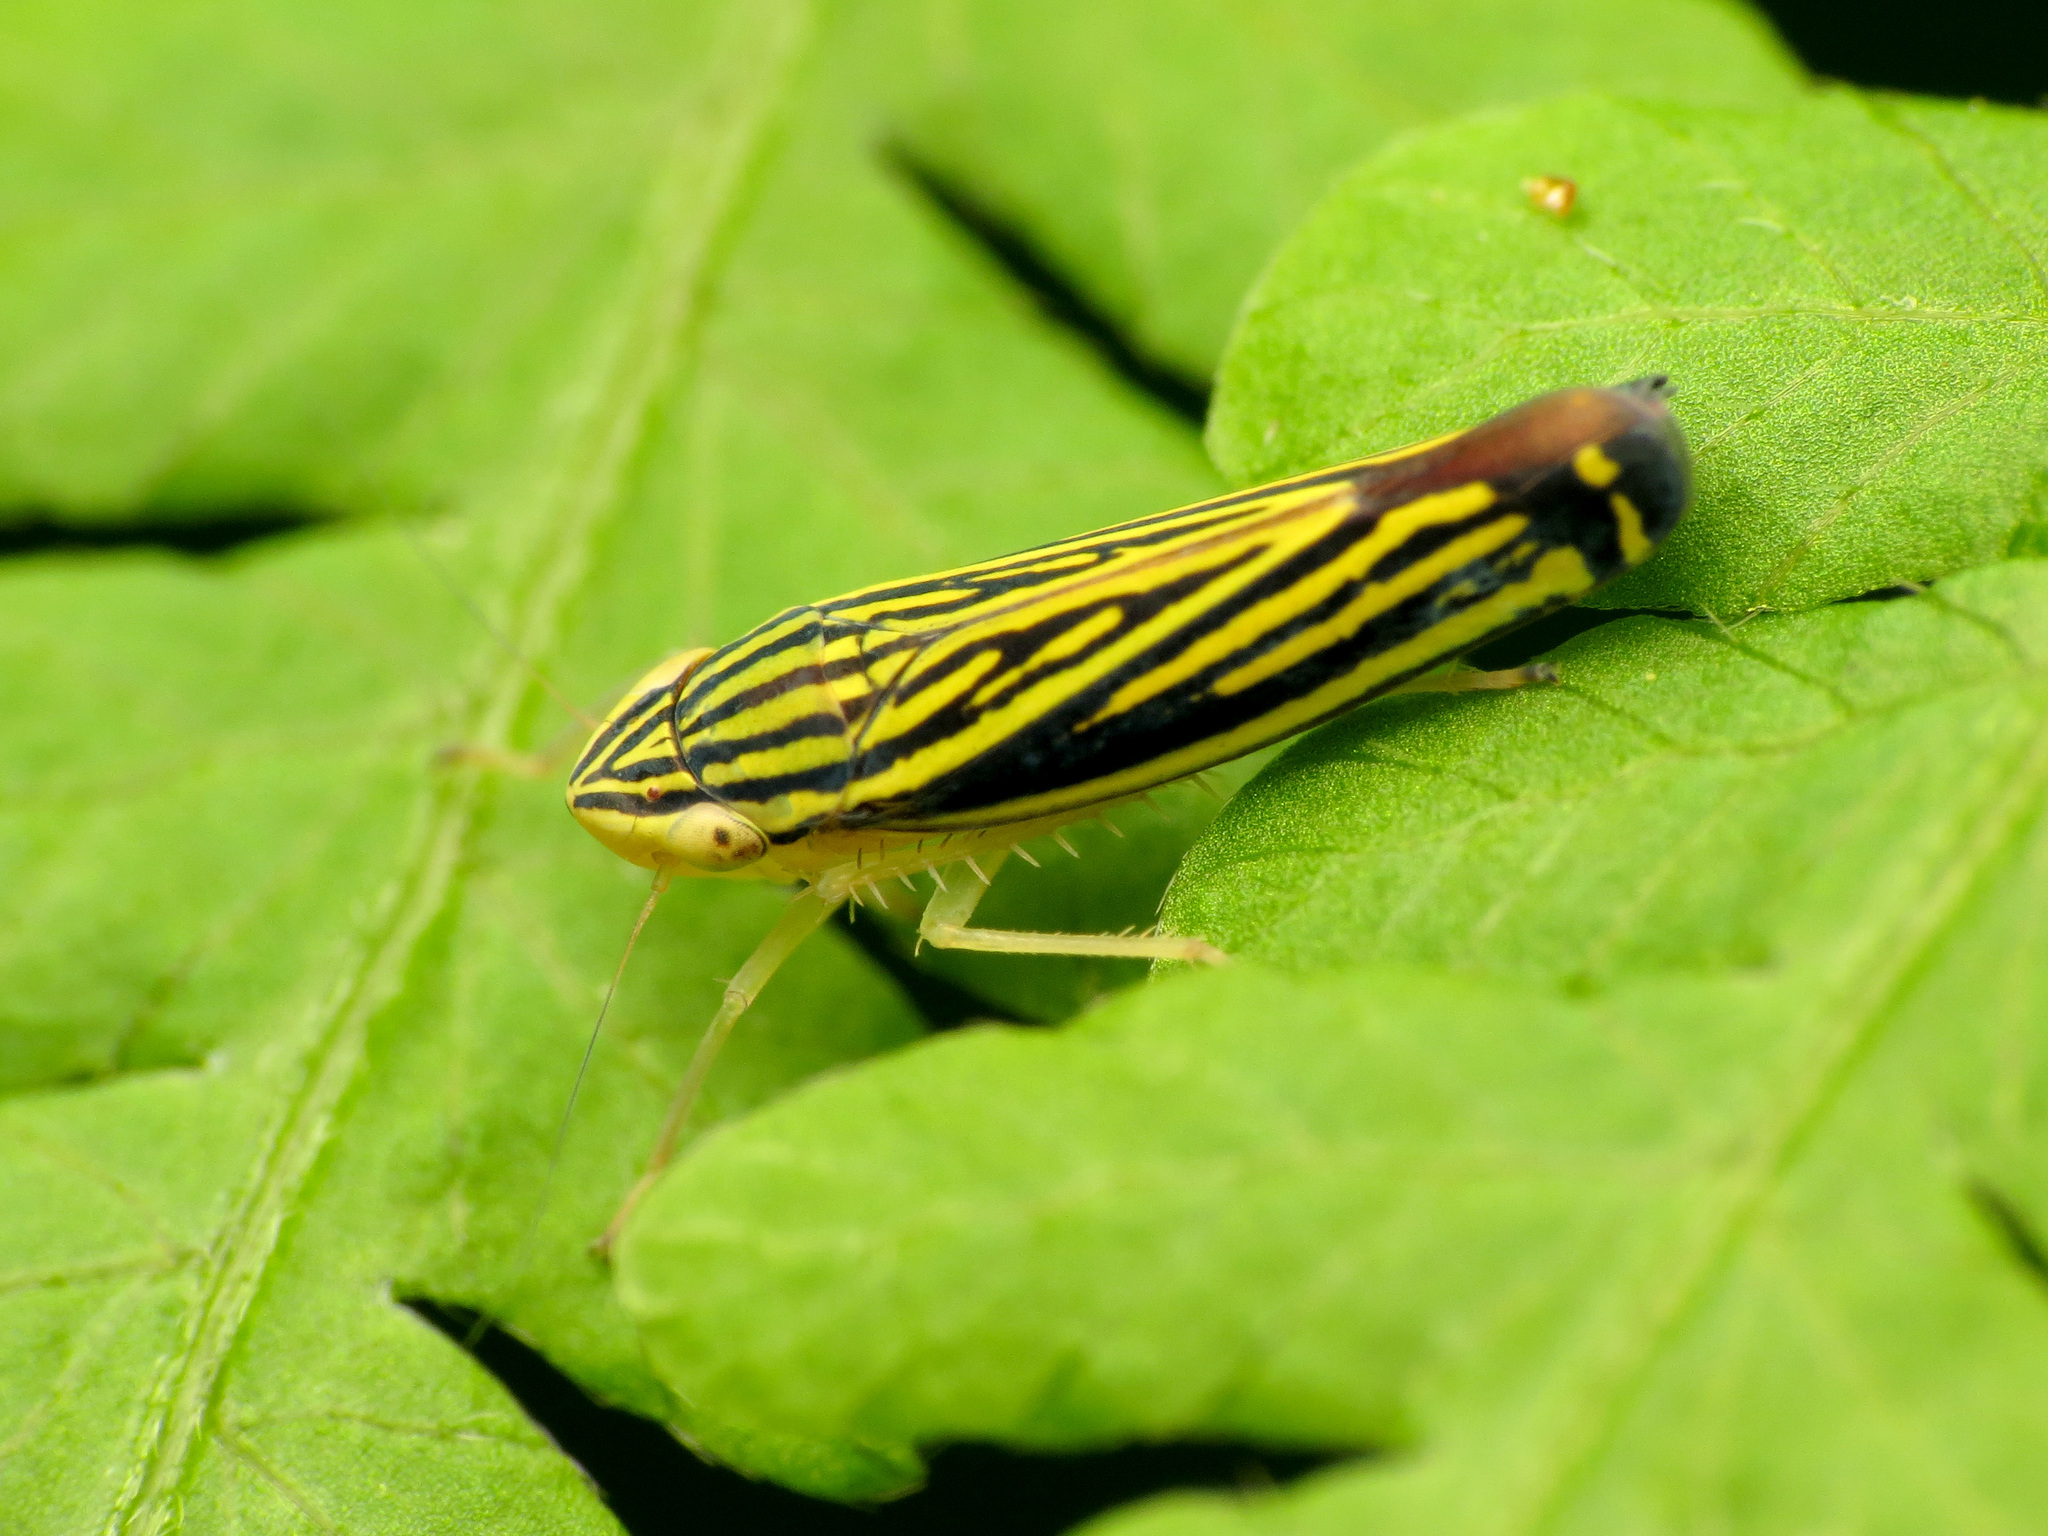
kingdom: Animalia
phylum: Arthropoda
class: Insecta
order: Hemiptera
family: Cicadellidae
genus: Sibovia
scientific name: Sibovia occatoria
